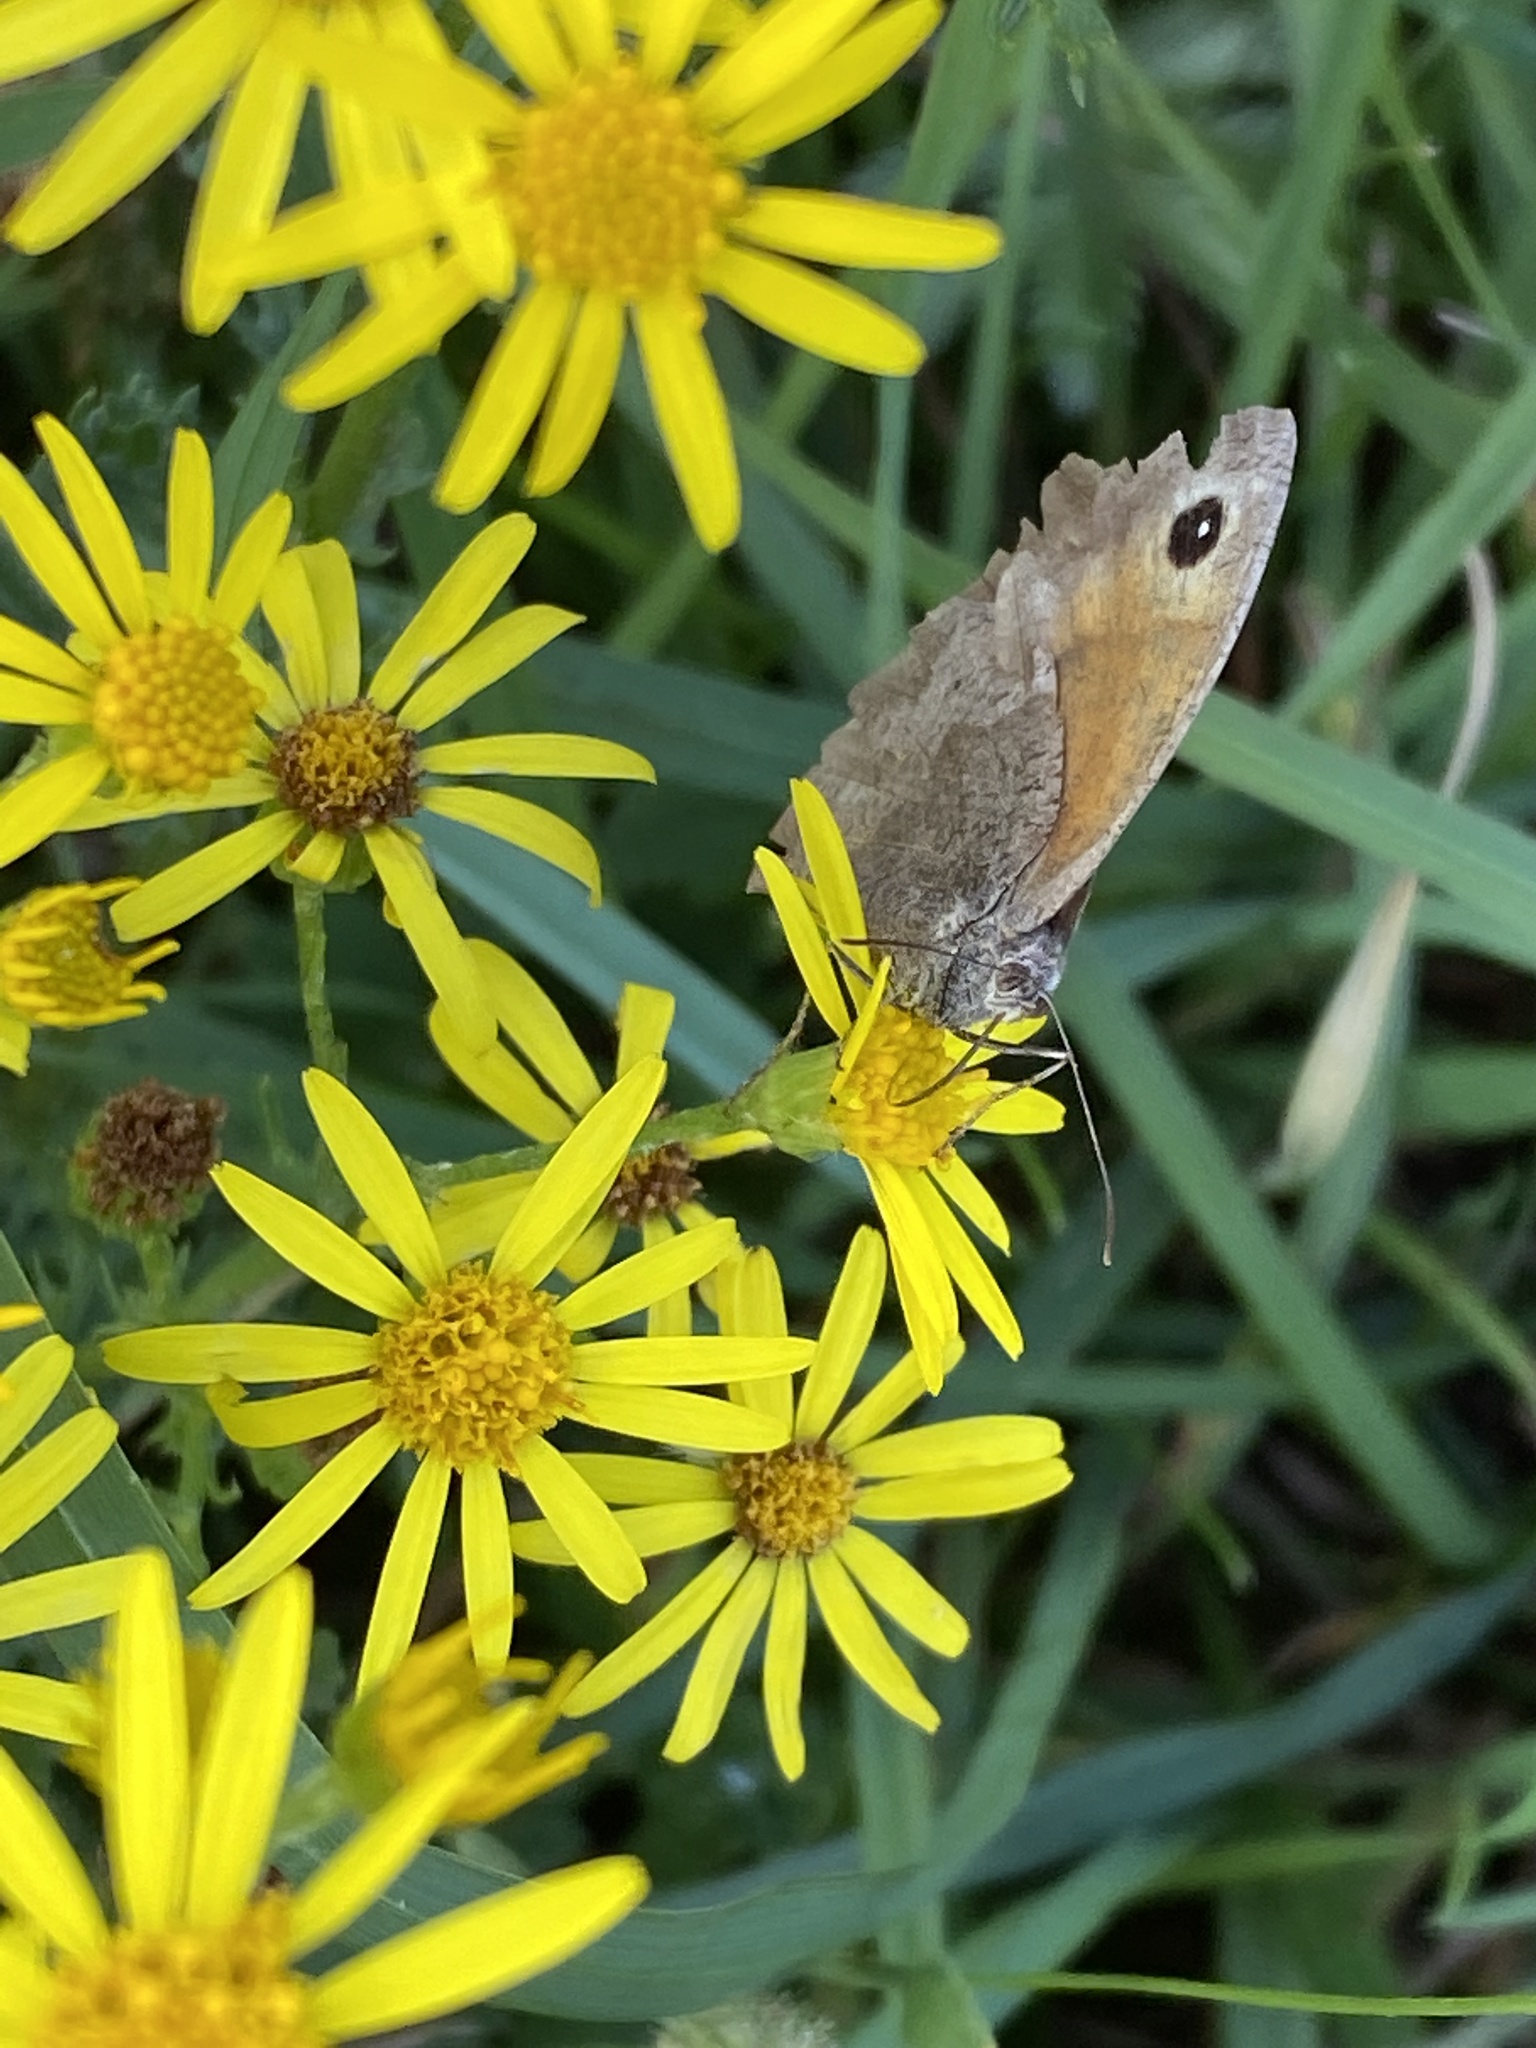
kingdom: Animalia
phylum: Arthropoda
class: Insecta
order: Lepidoptera
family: Nymphalidae
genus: Maniola
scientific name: Maniola jurtina
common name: Meadow brown
